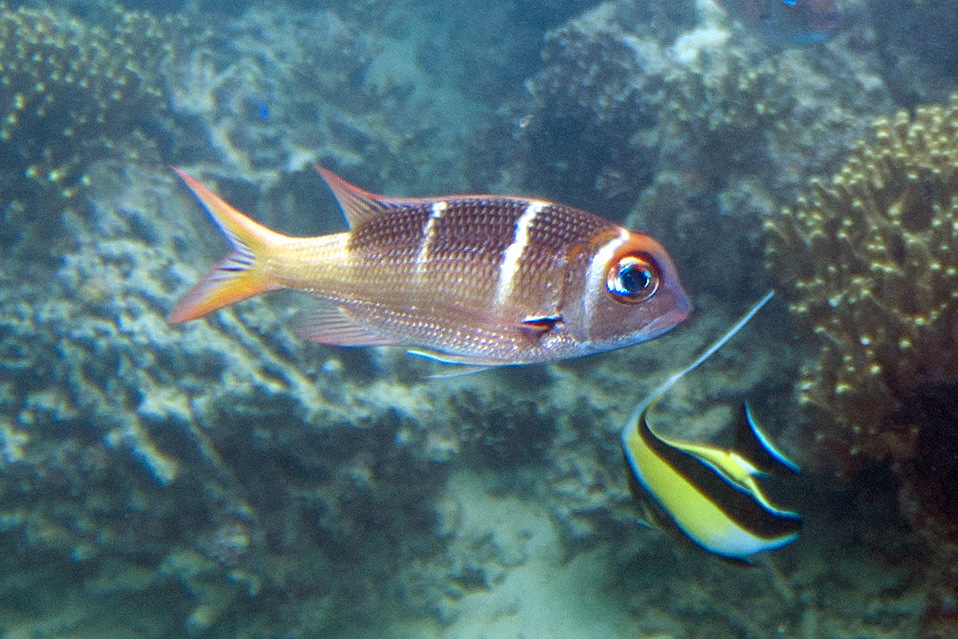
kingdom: Animalia
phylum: Chordata
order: Perciformes
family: Lethrinidae
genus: Monotaxis
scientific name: Monotaxis heterodon
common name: Redfin emperor
